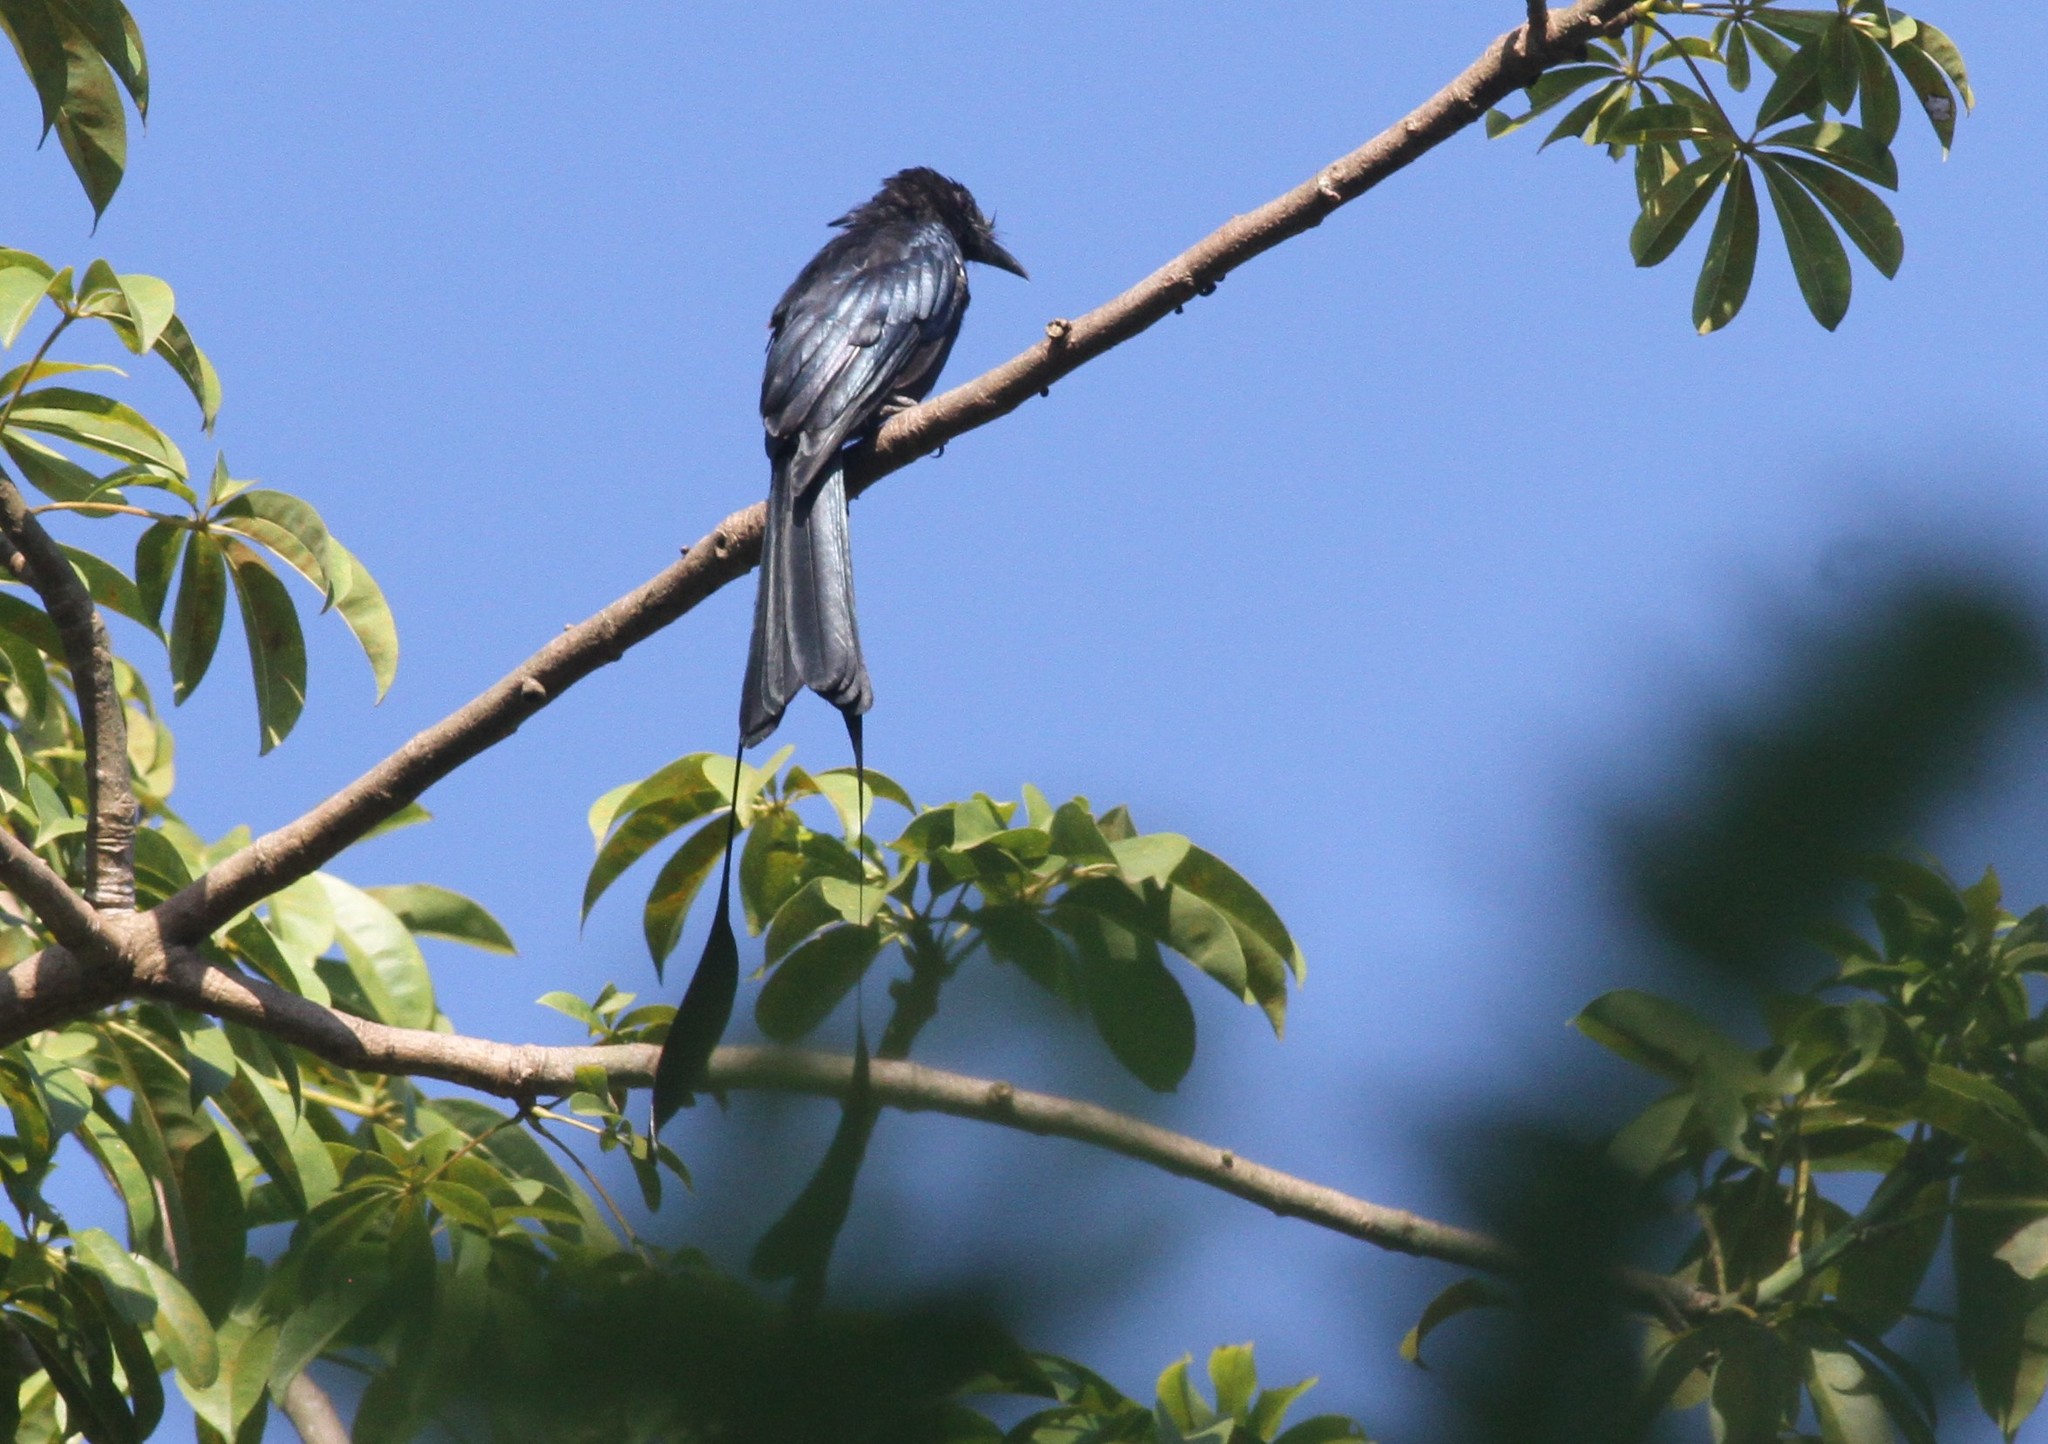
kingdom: Animalia
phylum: Chordata
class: Aves
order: Passeriformes
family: Dicruridae
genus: Dicrurus
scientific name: Dicrurus paradiseus
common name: Greater racket-tailed drongo
